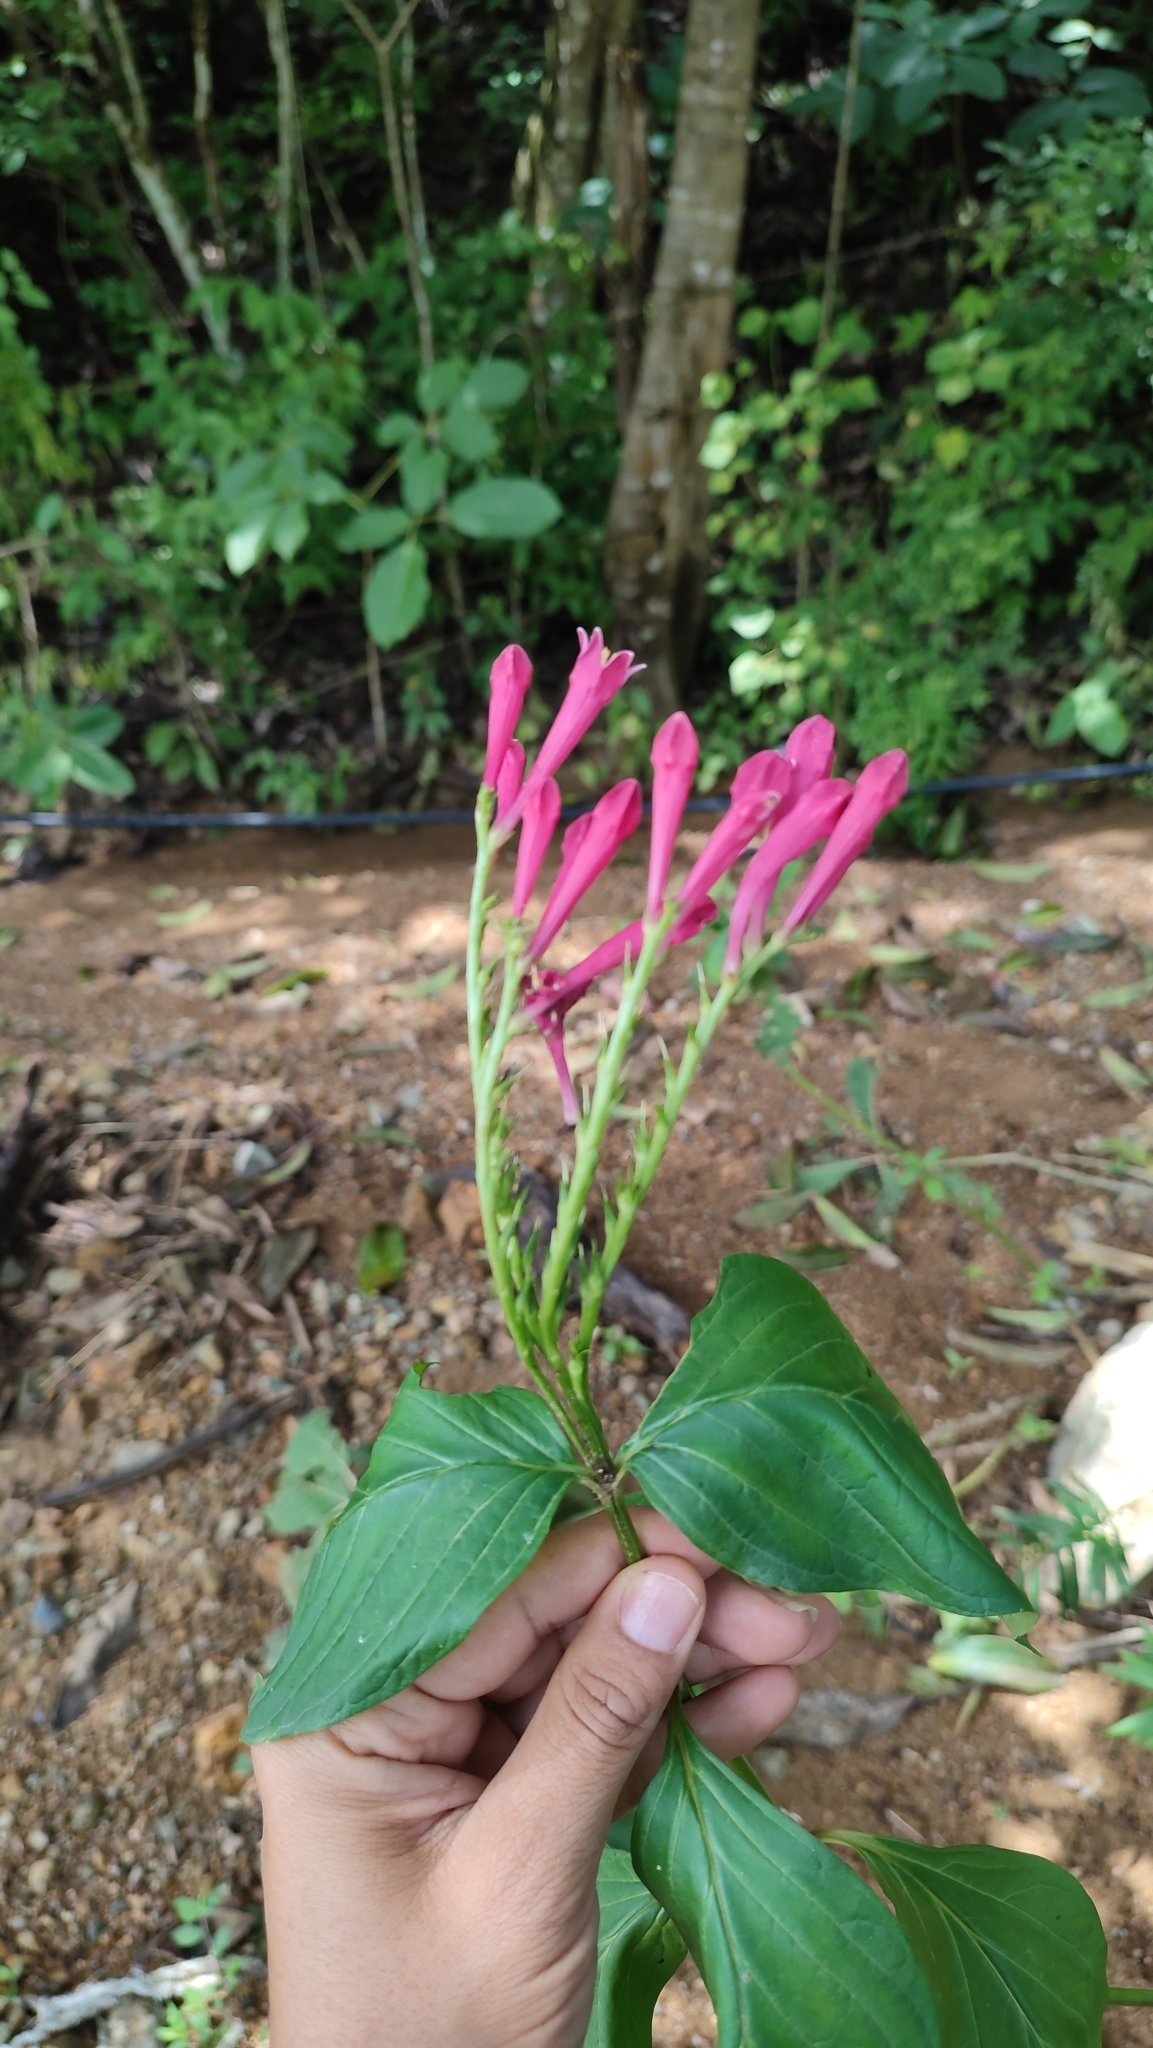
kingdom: Plantae
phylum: Tracheophyta
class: Magnoliopsida
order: Gentianales
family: Loganiaceae
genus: Spigelia
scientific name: Spigelia colimensis
